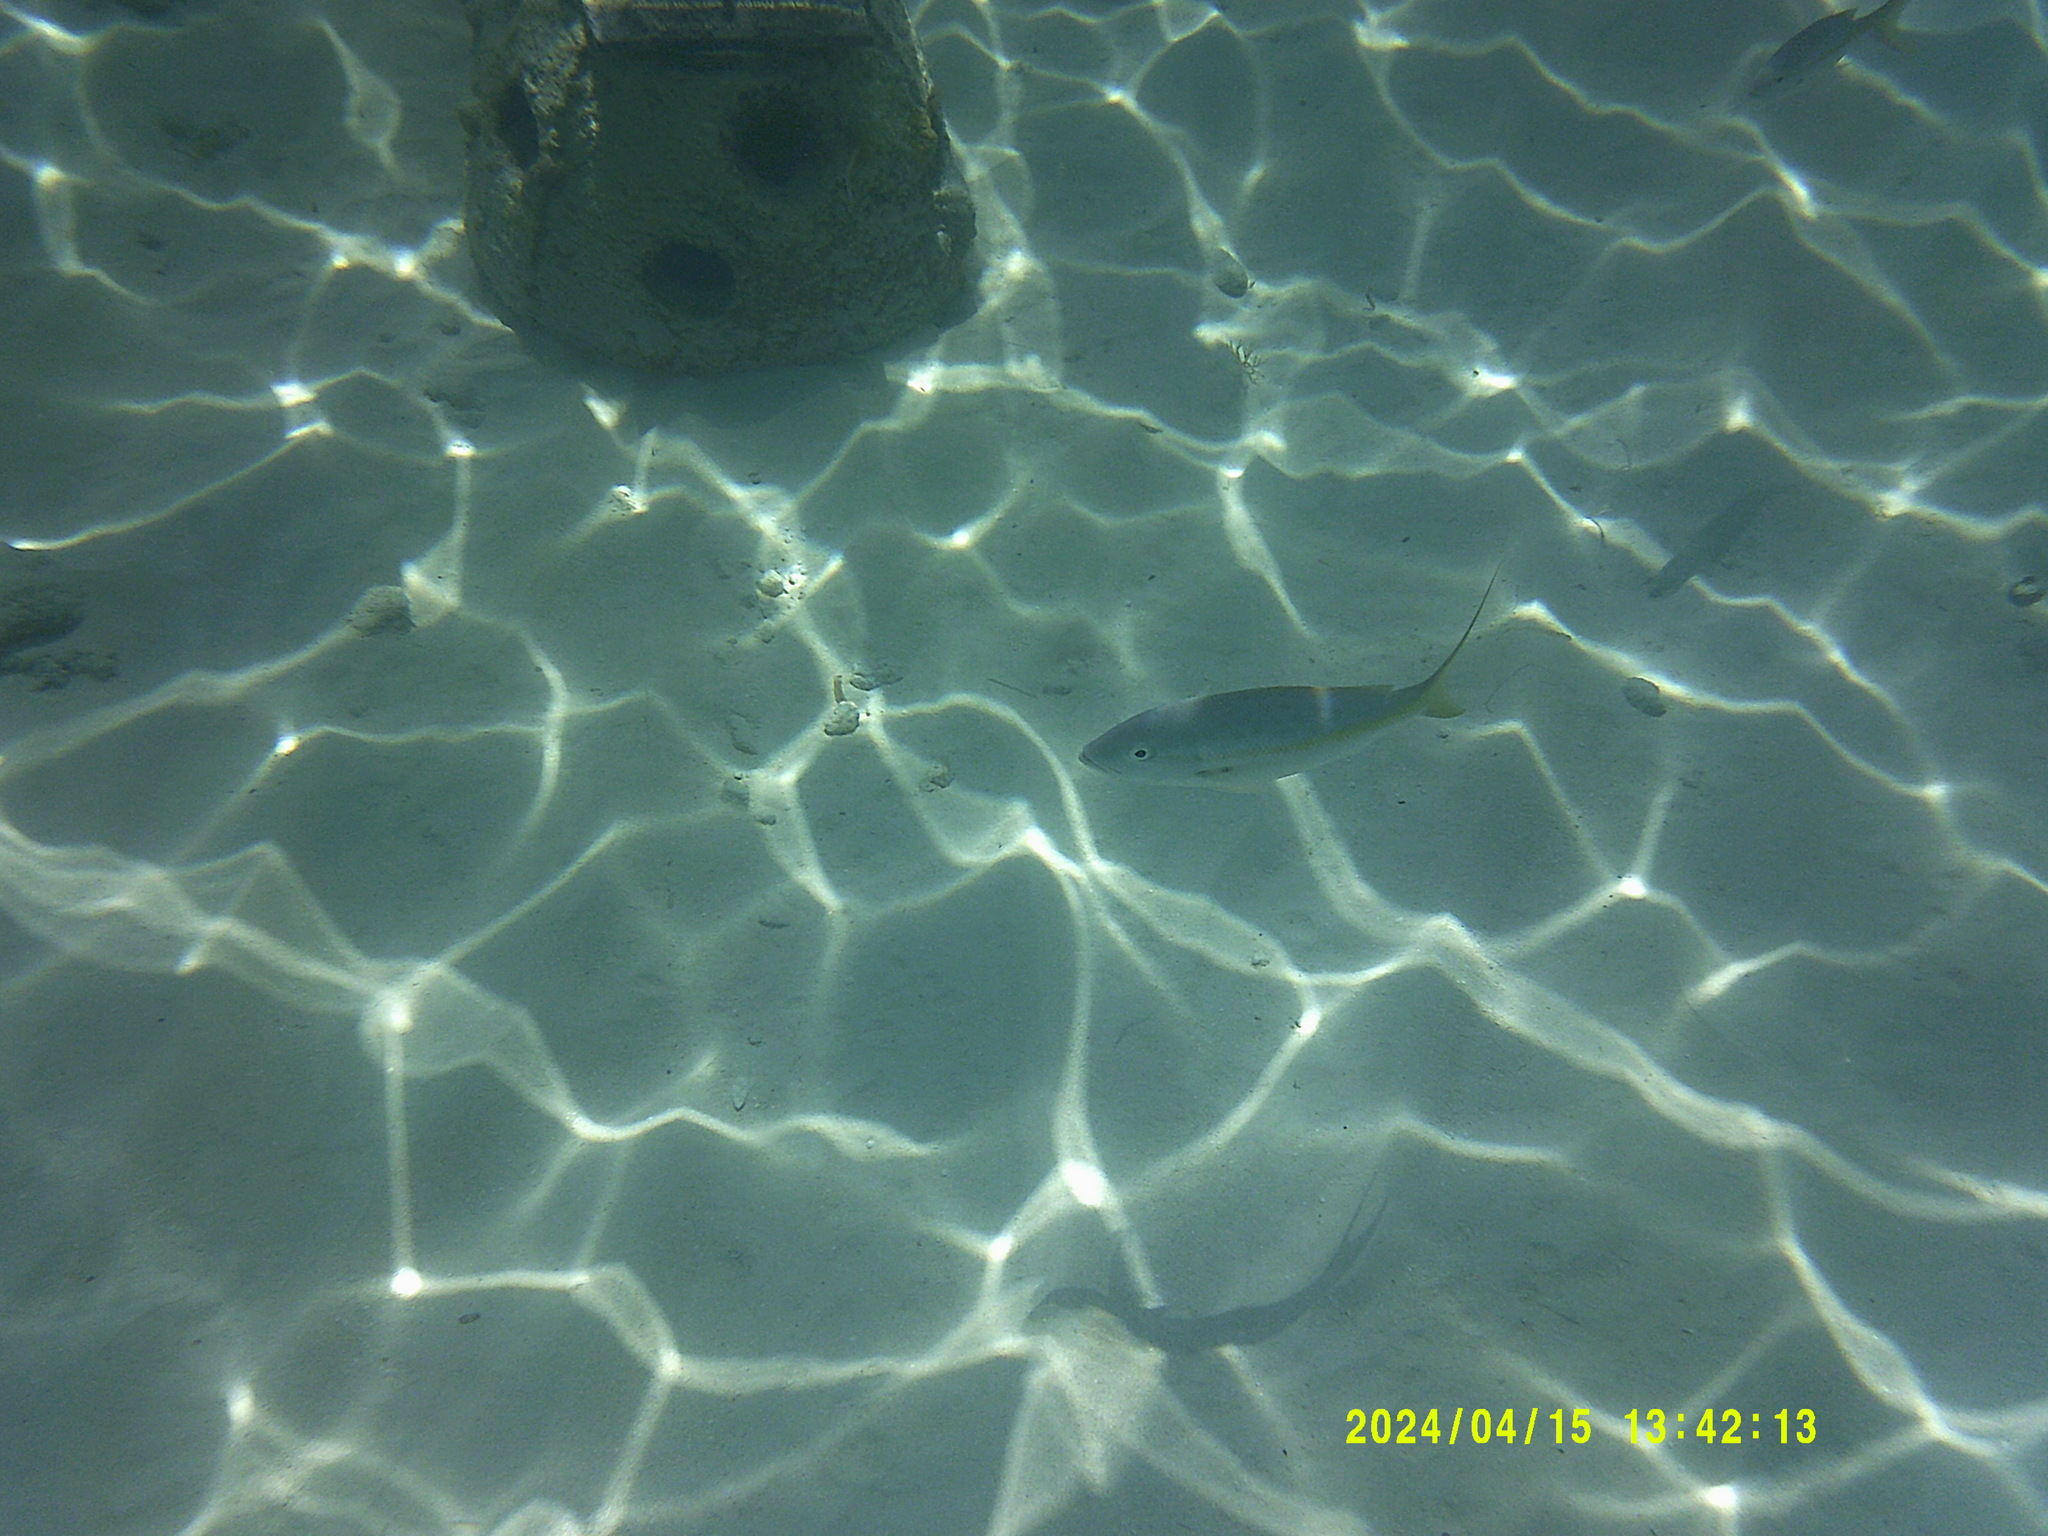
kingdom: Animalia
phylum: Chordata
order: Perciformes
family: Lutjanidae
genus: Ocyurus
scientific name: Ocyurus chrysurus
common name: Yellowtail snapper
